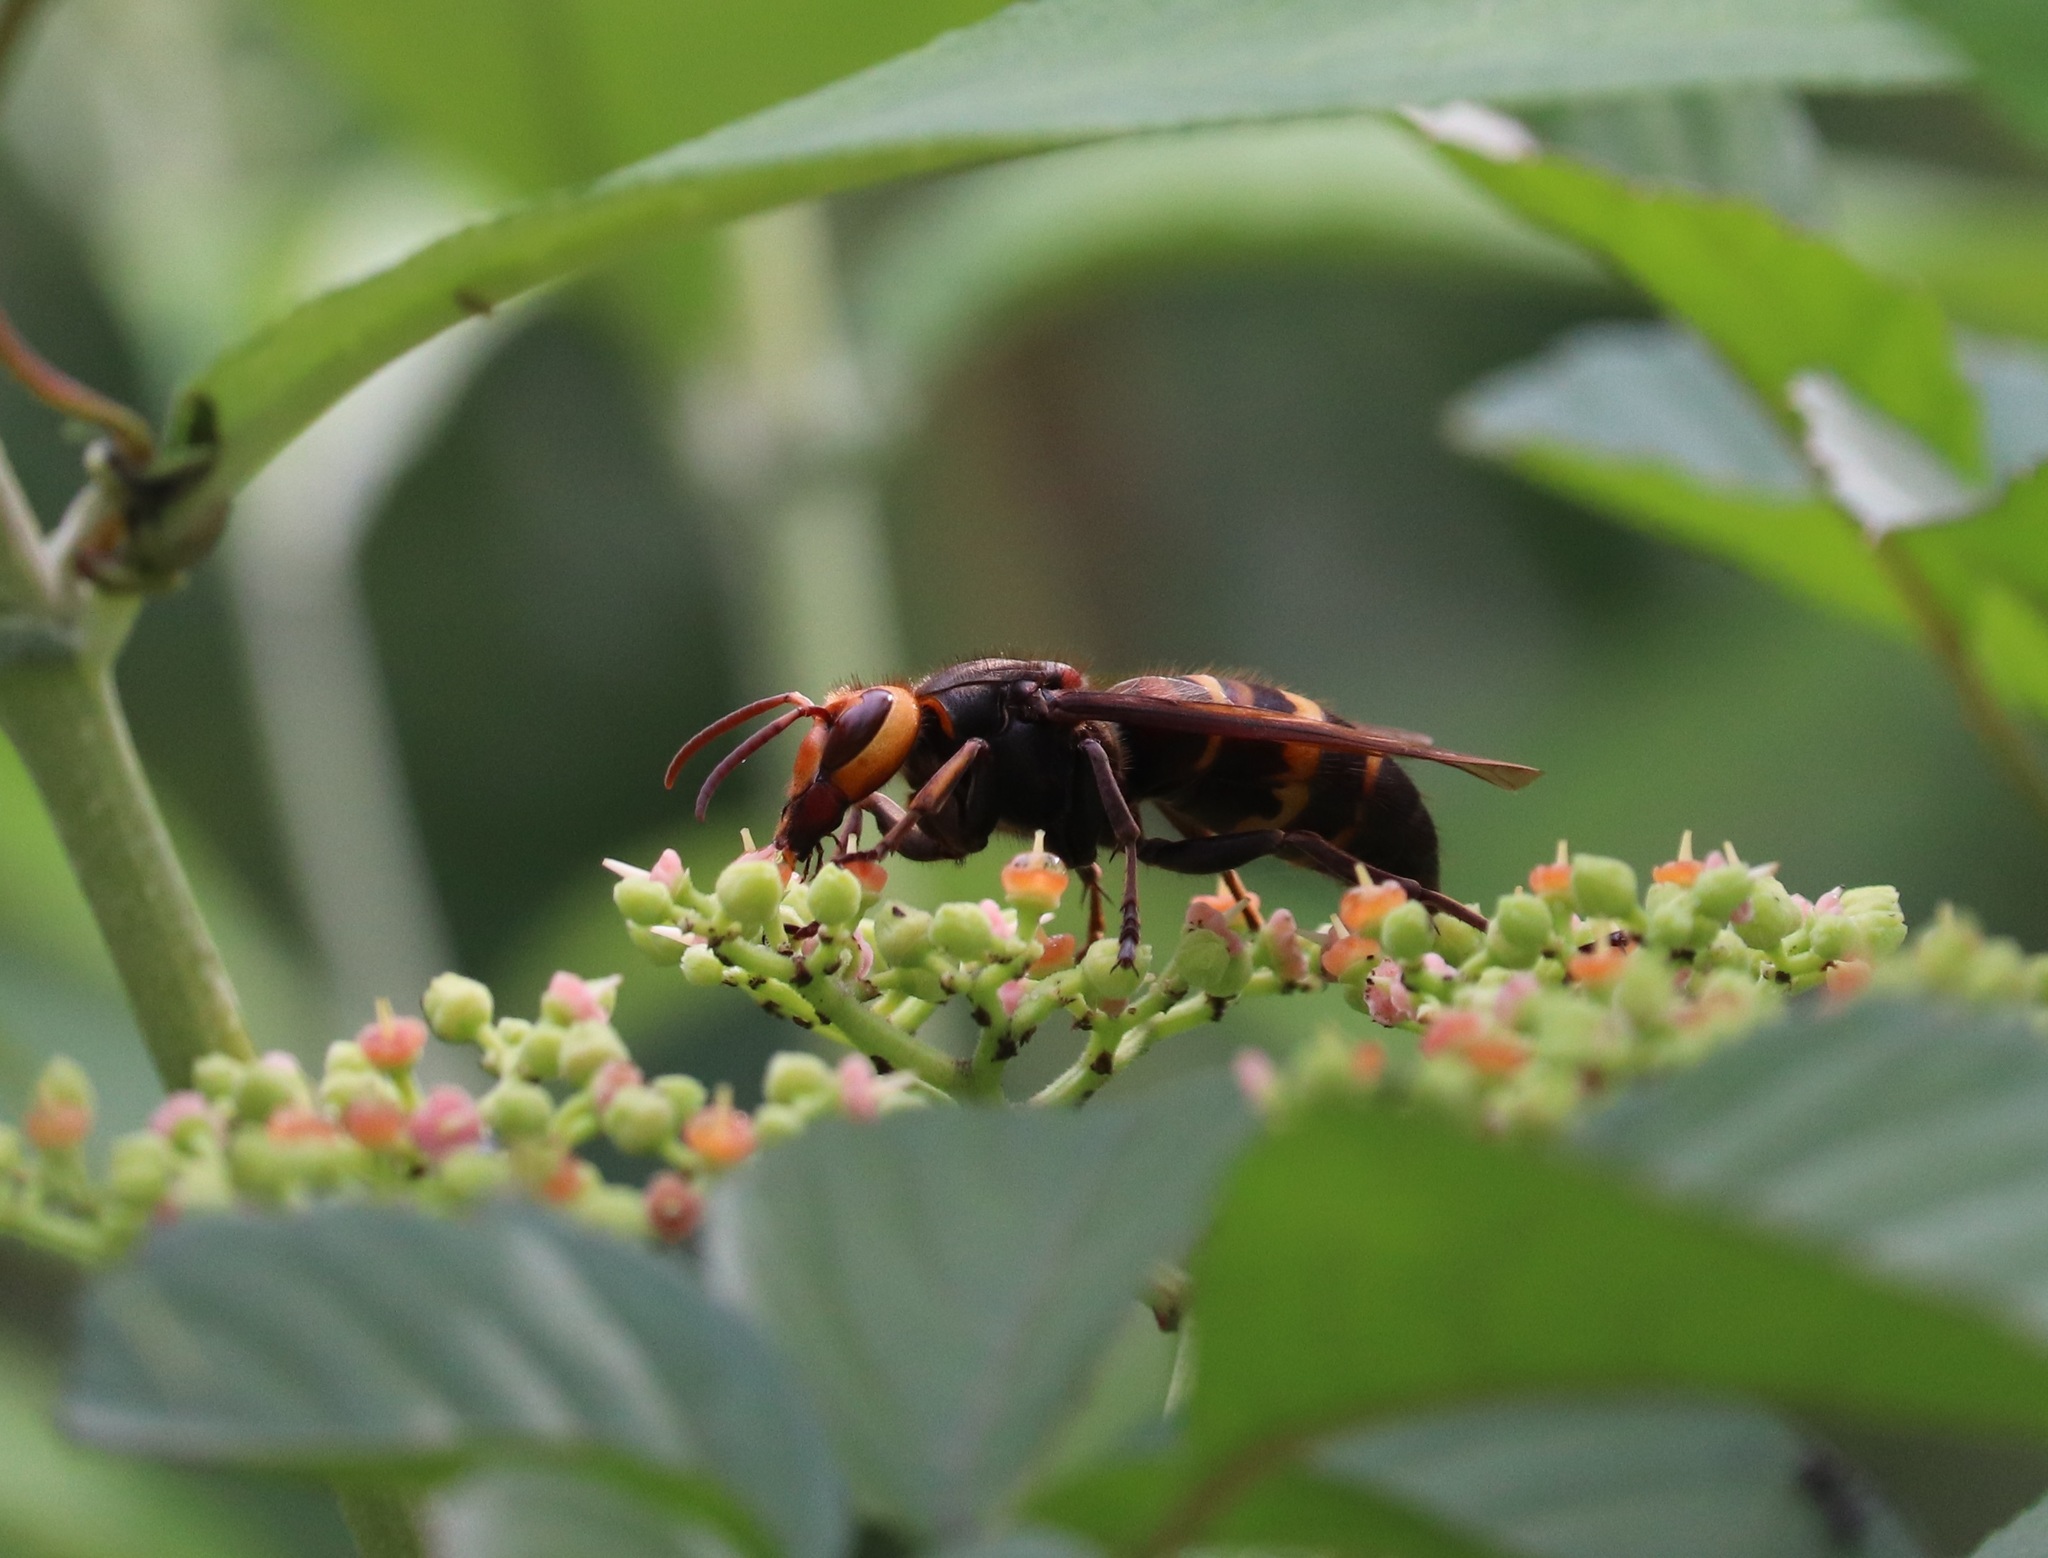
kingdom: Animalia
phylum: Arthropoda
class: Insecta
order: Hymenoptera
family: Vespidae
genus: Vespa
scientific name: Vespa ducalis
